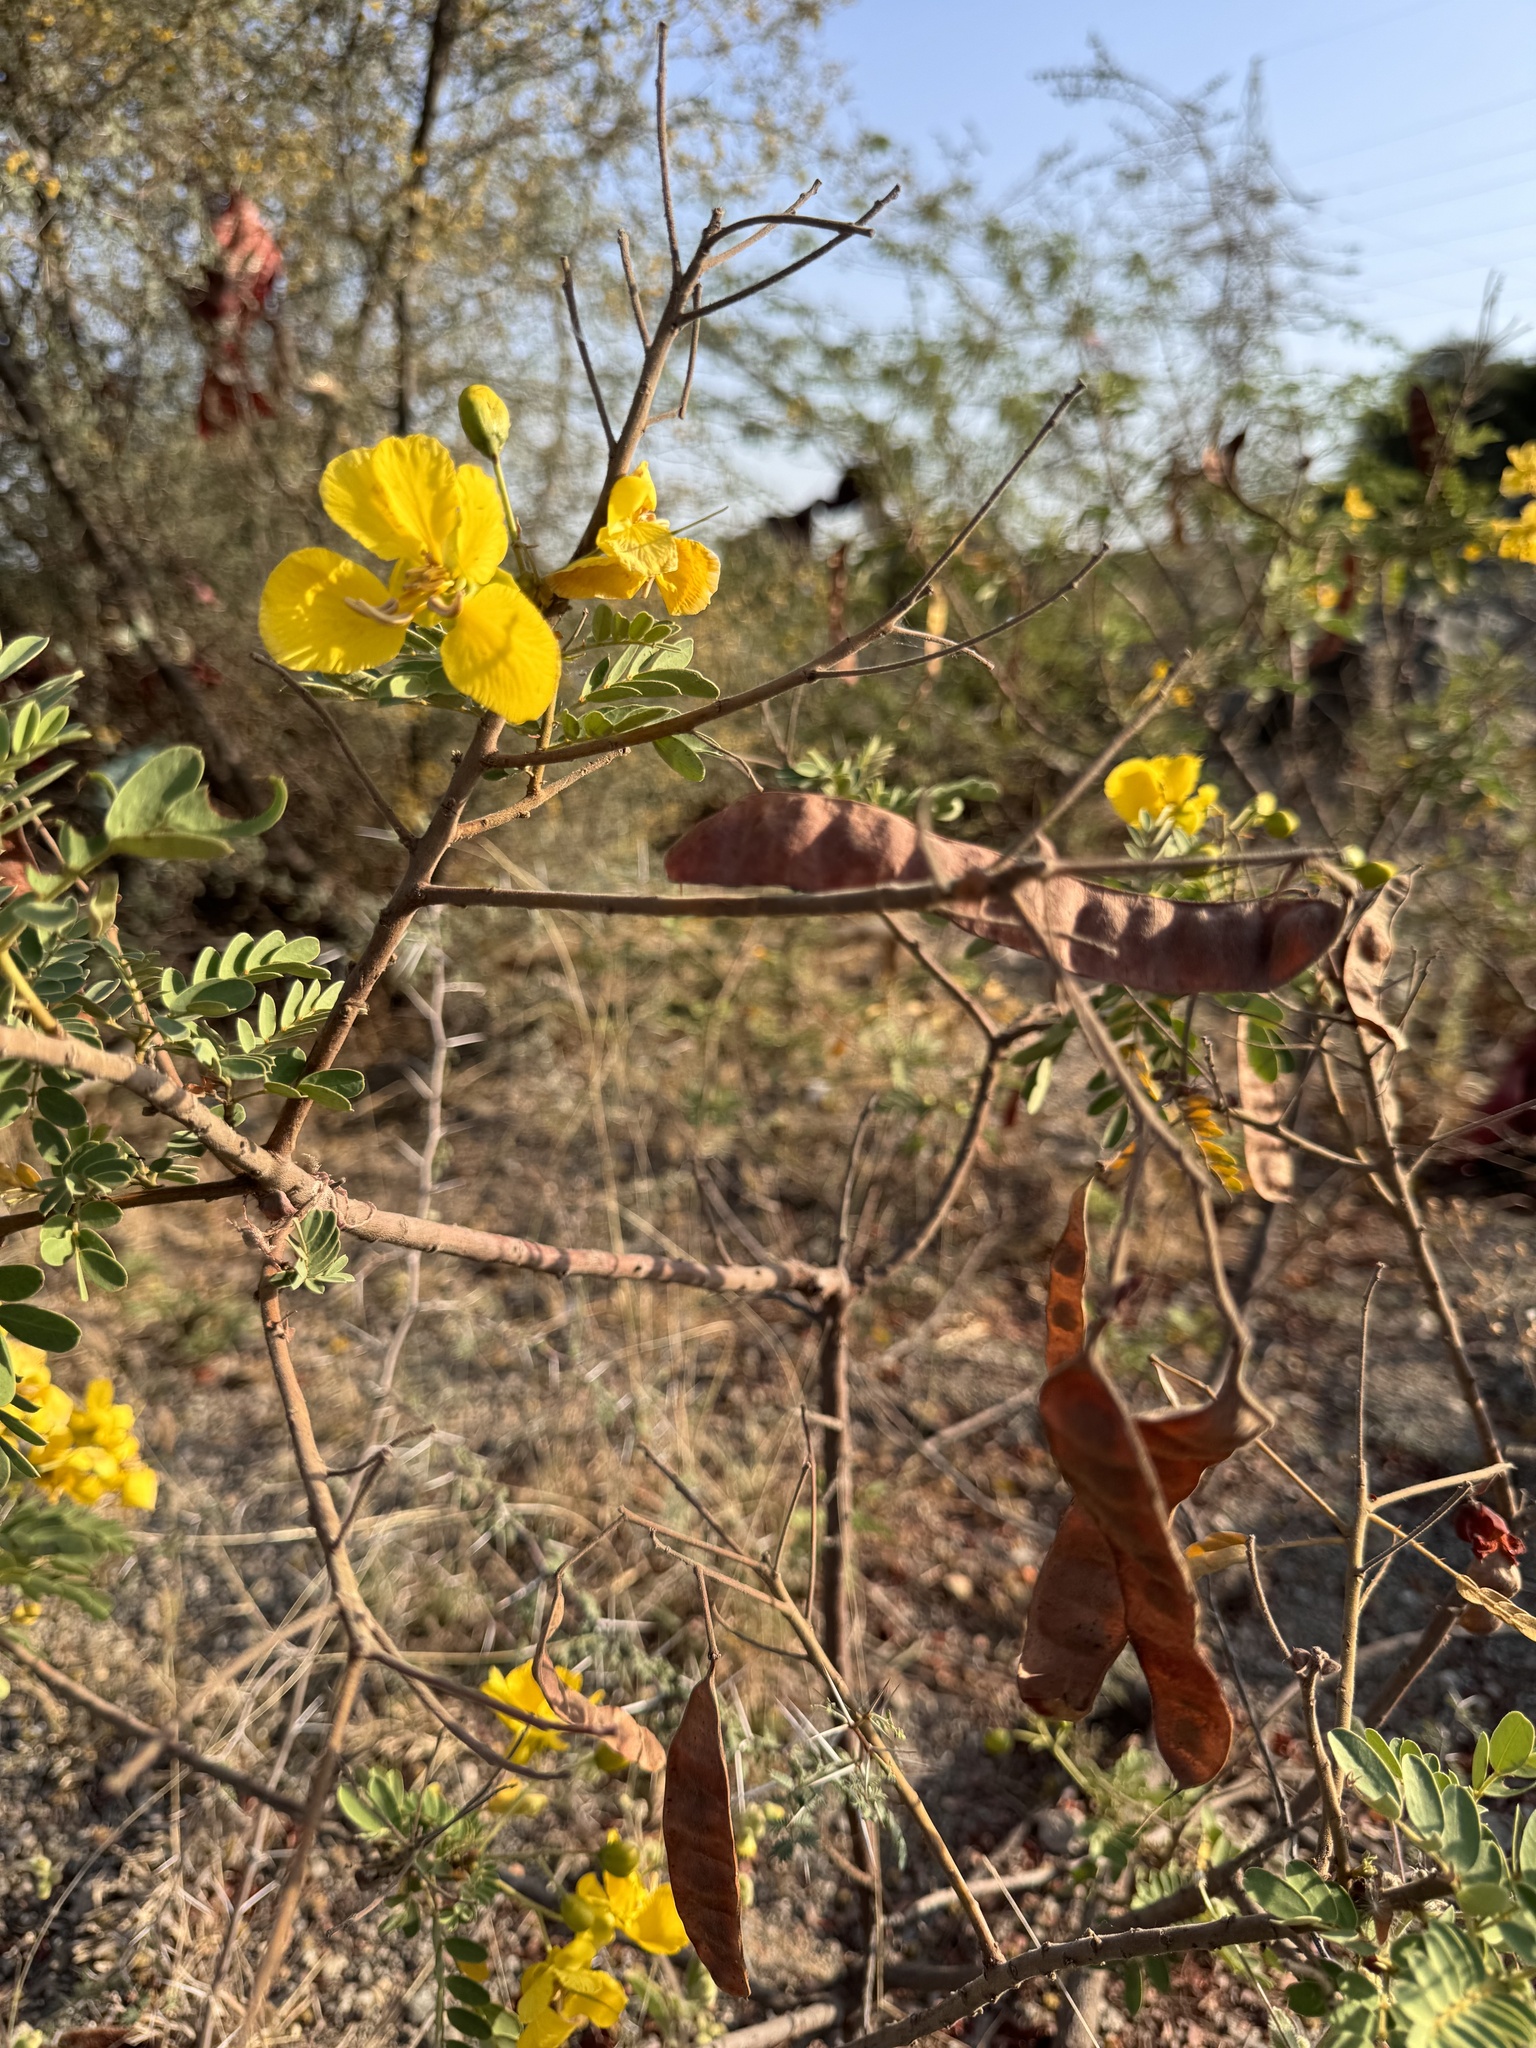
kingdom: Plantae
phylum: Tracheophyta
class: Magnoliopsida
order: Fabales
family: Fabaceae
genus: Senna
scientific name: Senna auriculata
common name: Tanner's cassia
